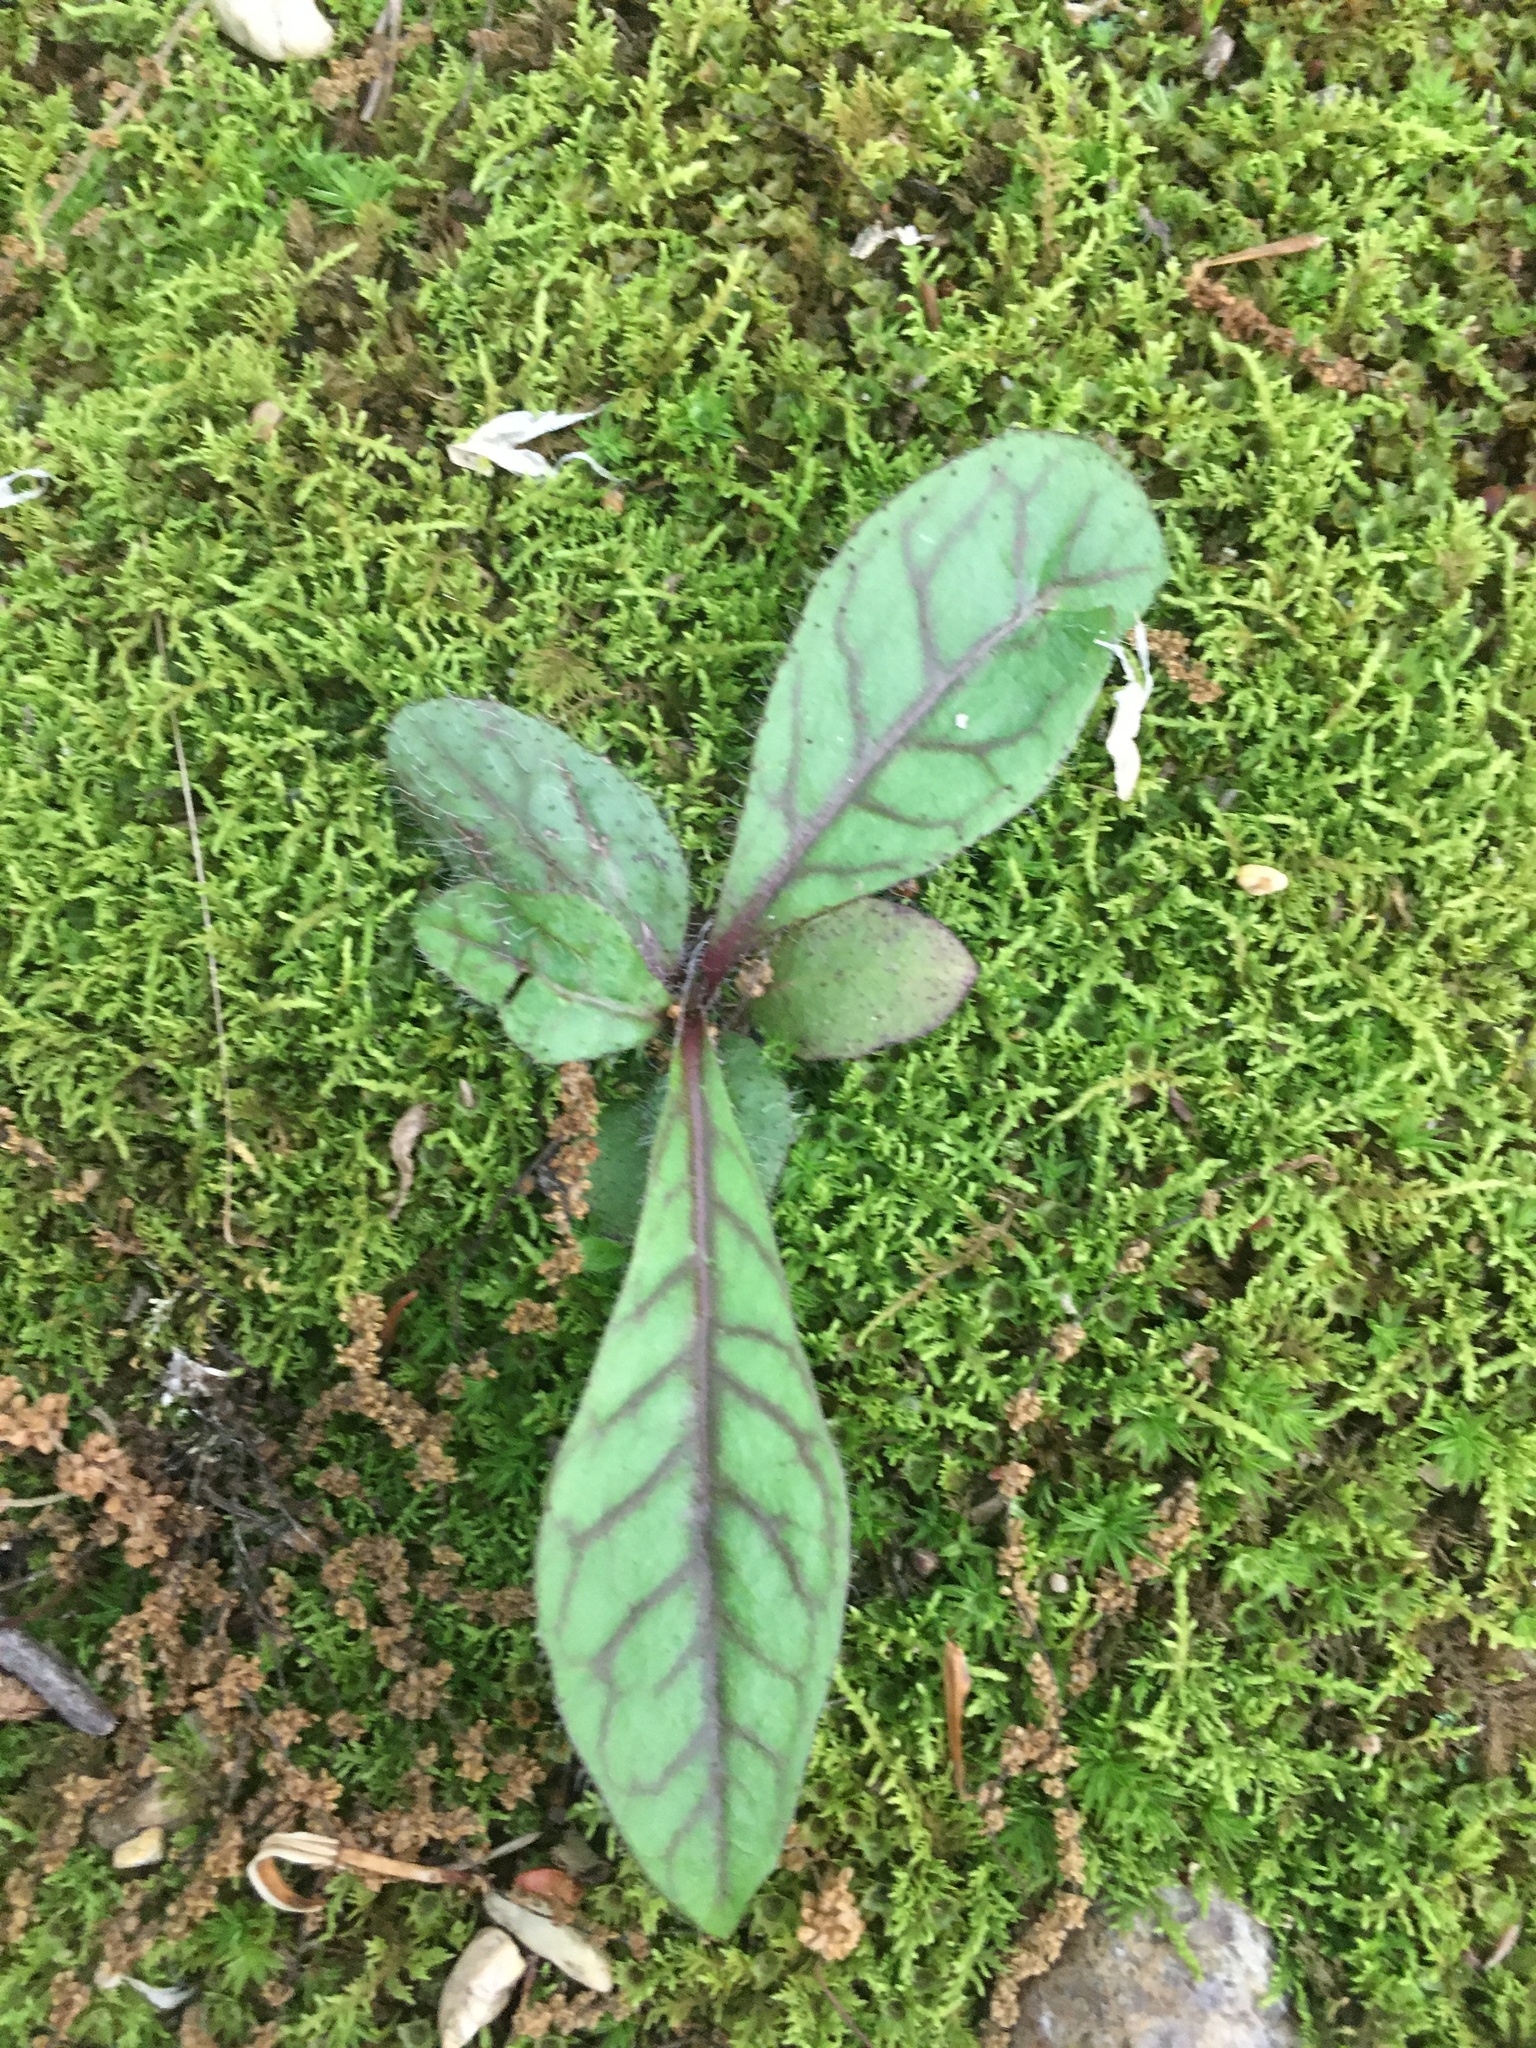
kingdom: Plantae
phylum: Tracheophyta
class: Magnoliopsida
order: Asterales
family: Asteraceae
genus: Hieracium
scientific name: Hieracium venosum
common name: Rattlesnake hawkweed
